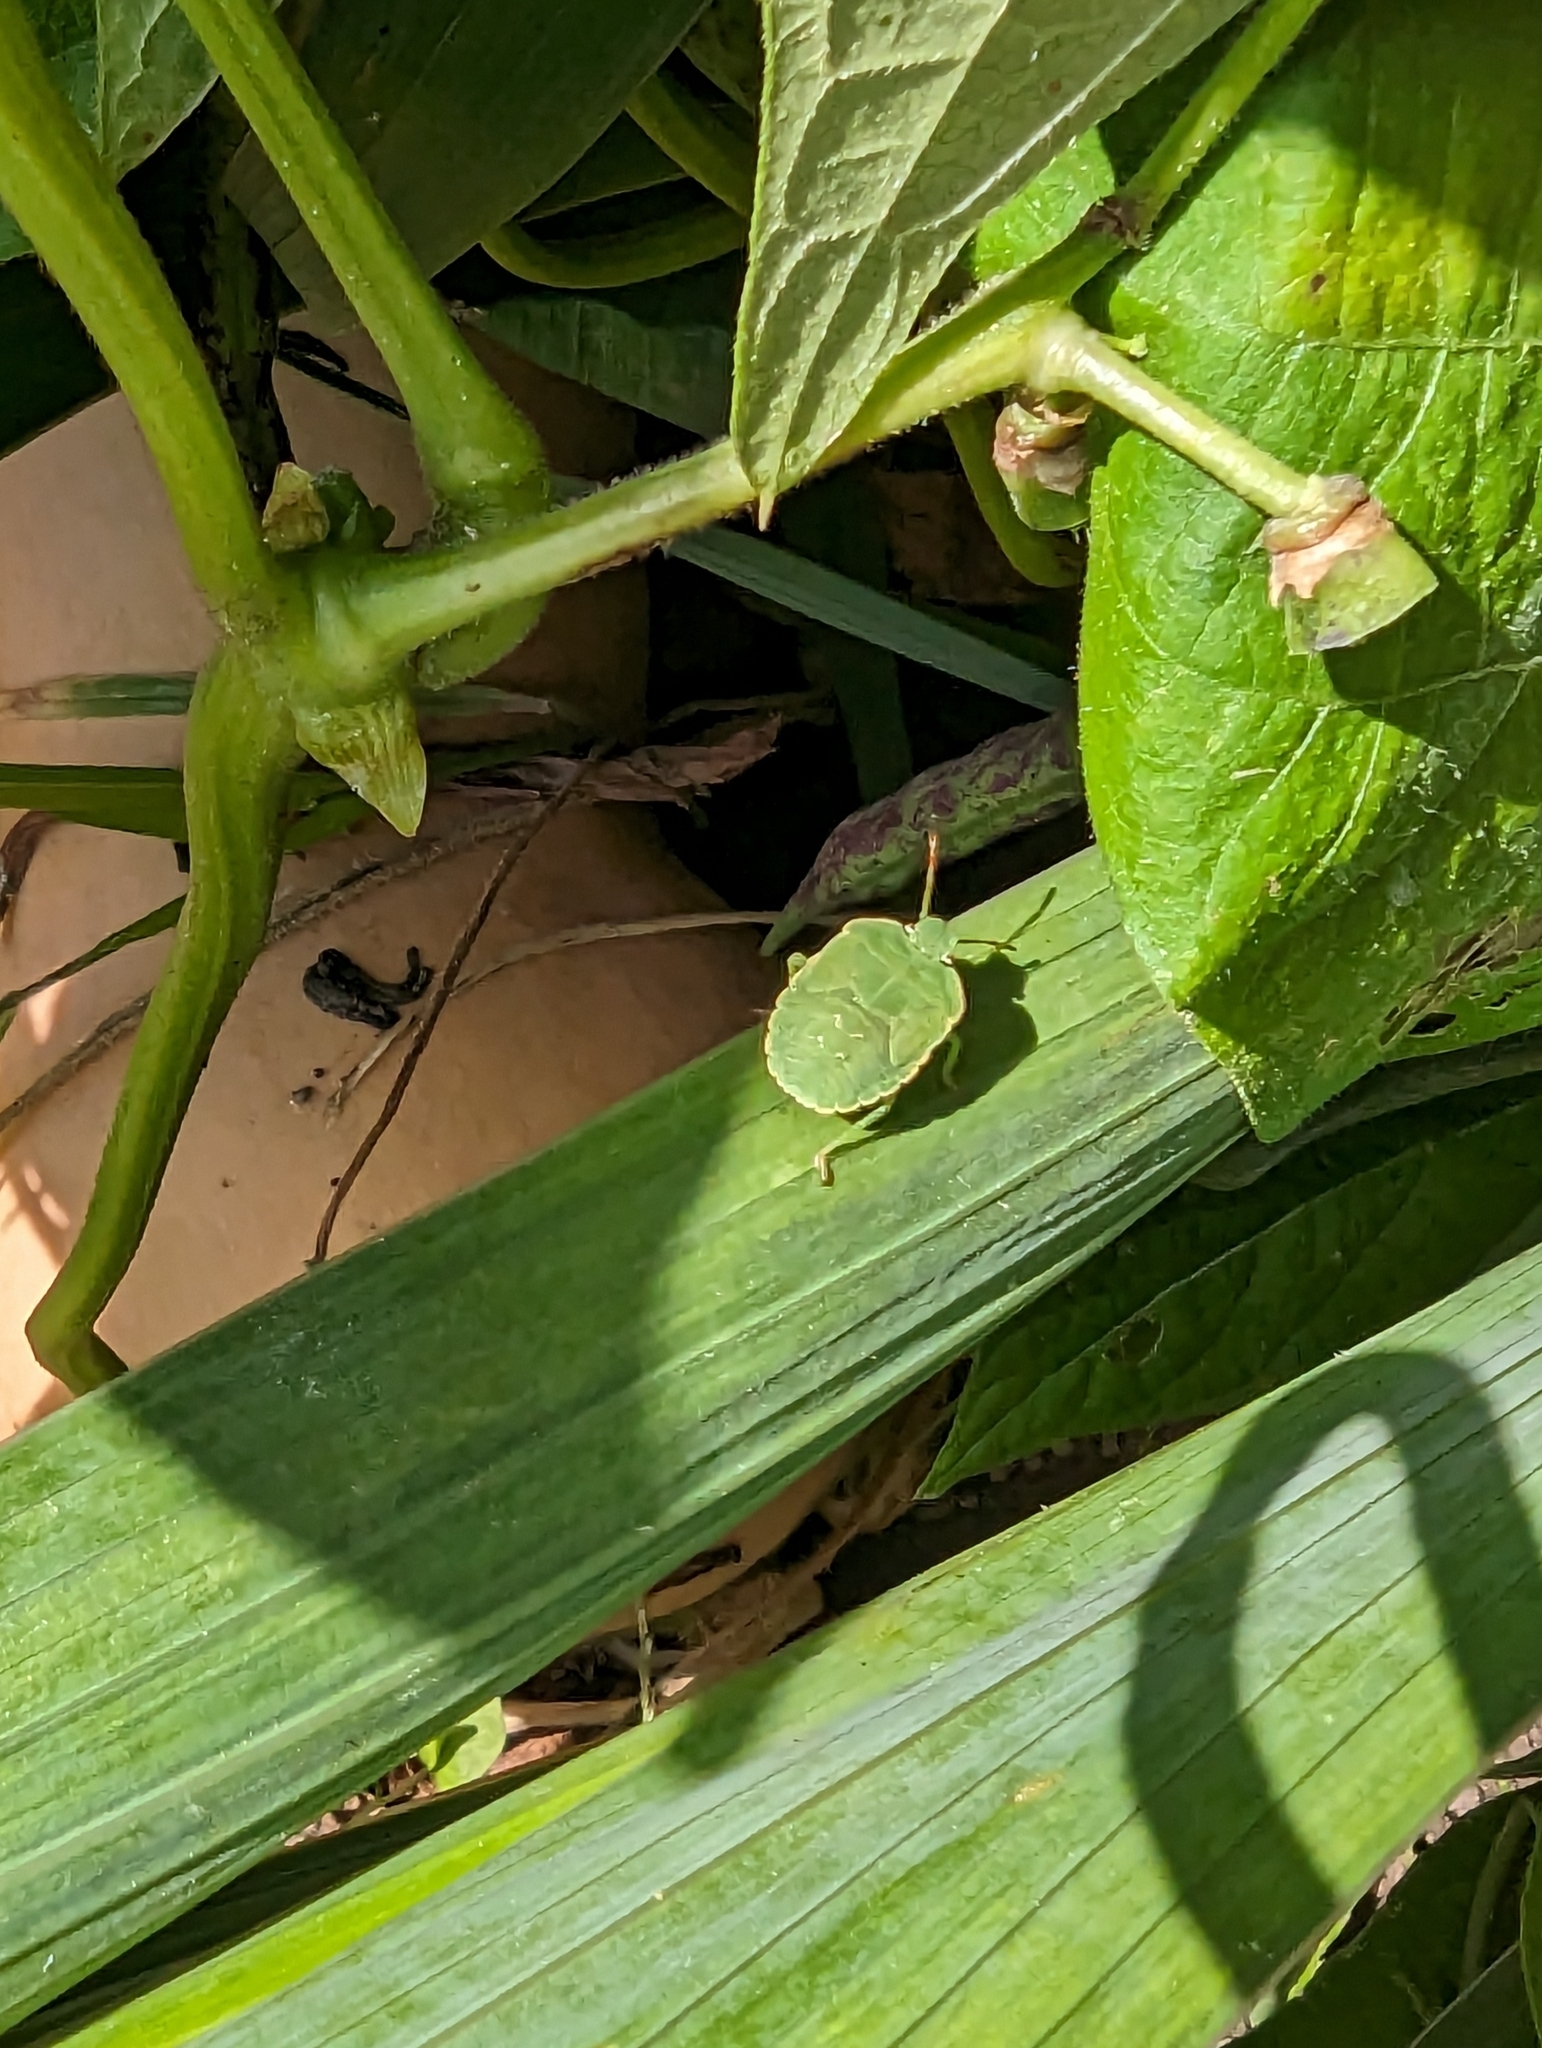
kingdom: Animalia
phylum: Arthropoda
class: Insecta
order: Hemiptera
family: Pentatomidae
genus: Palomena
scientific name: Palomena prasina
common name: Green shieldbug
